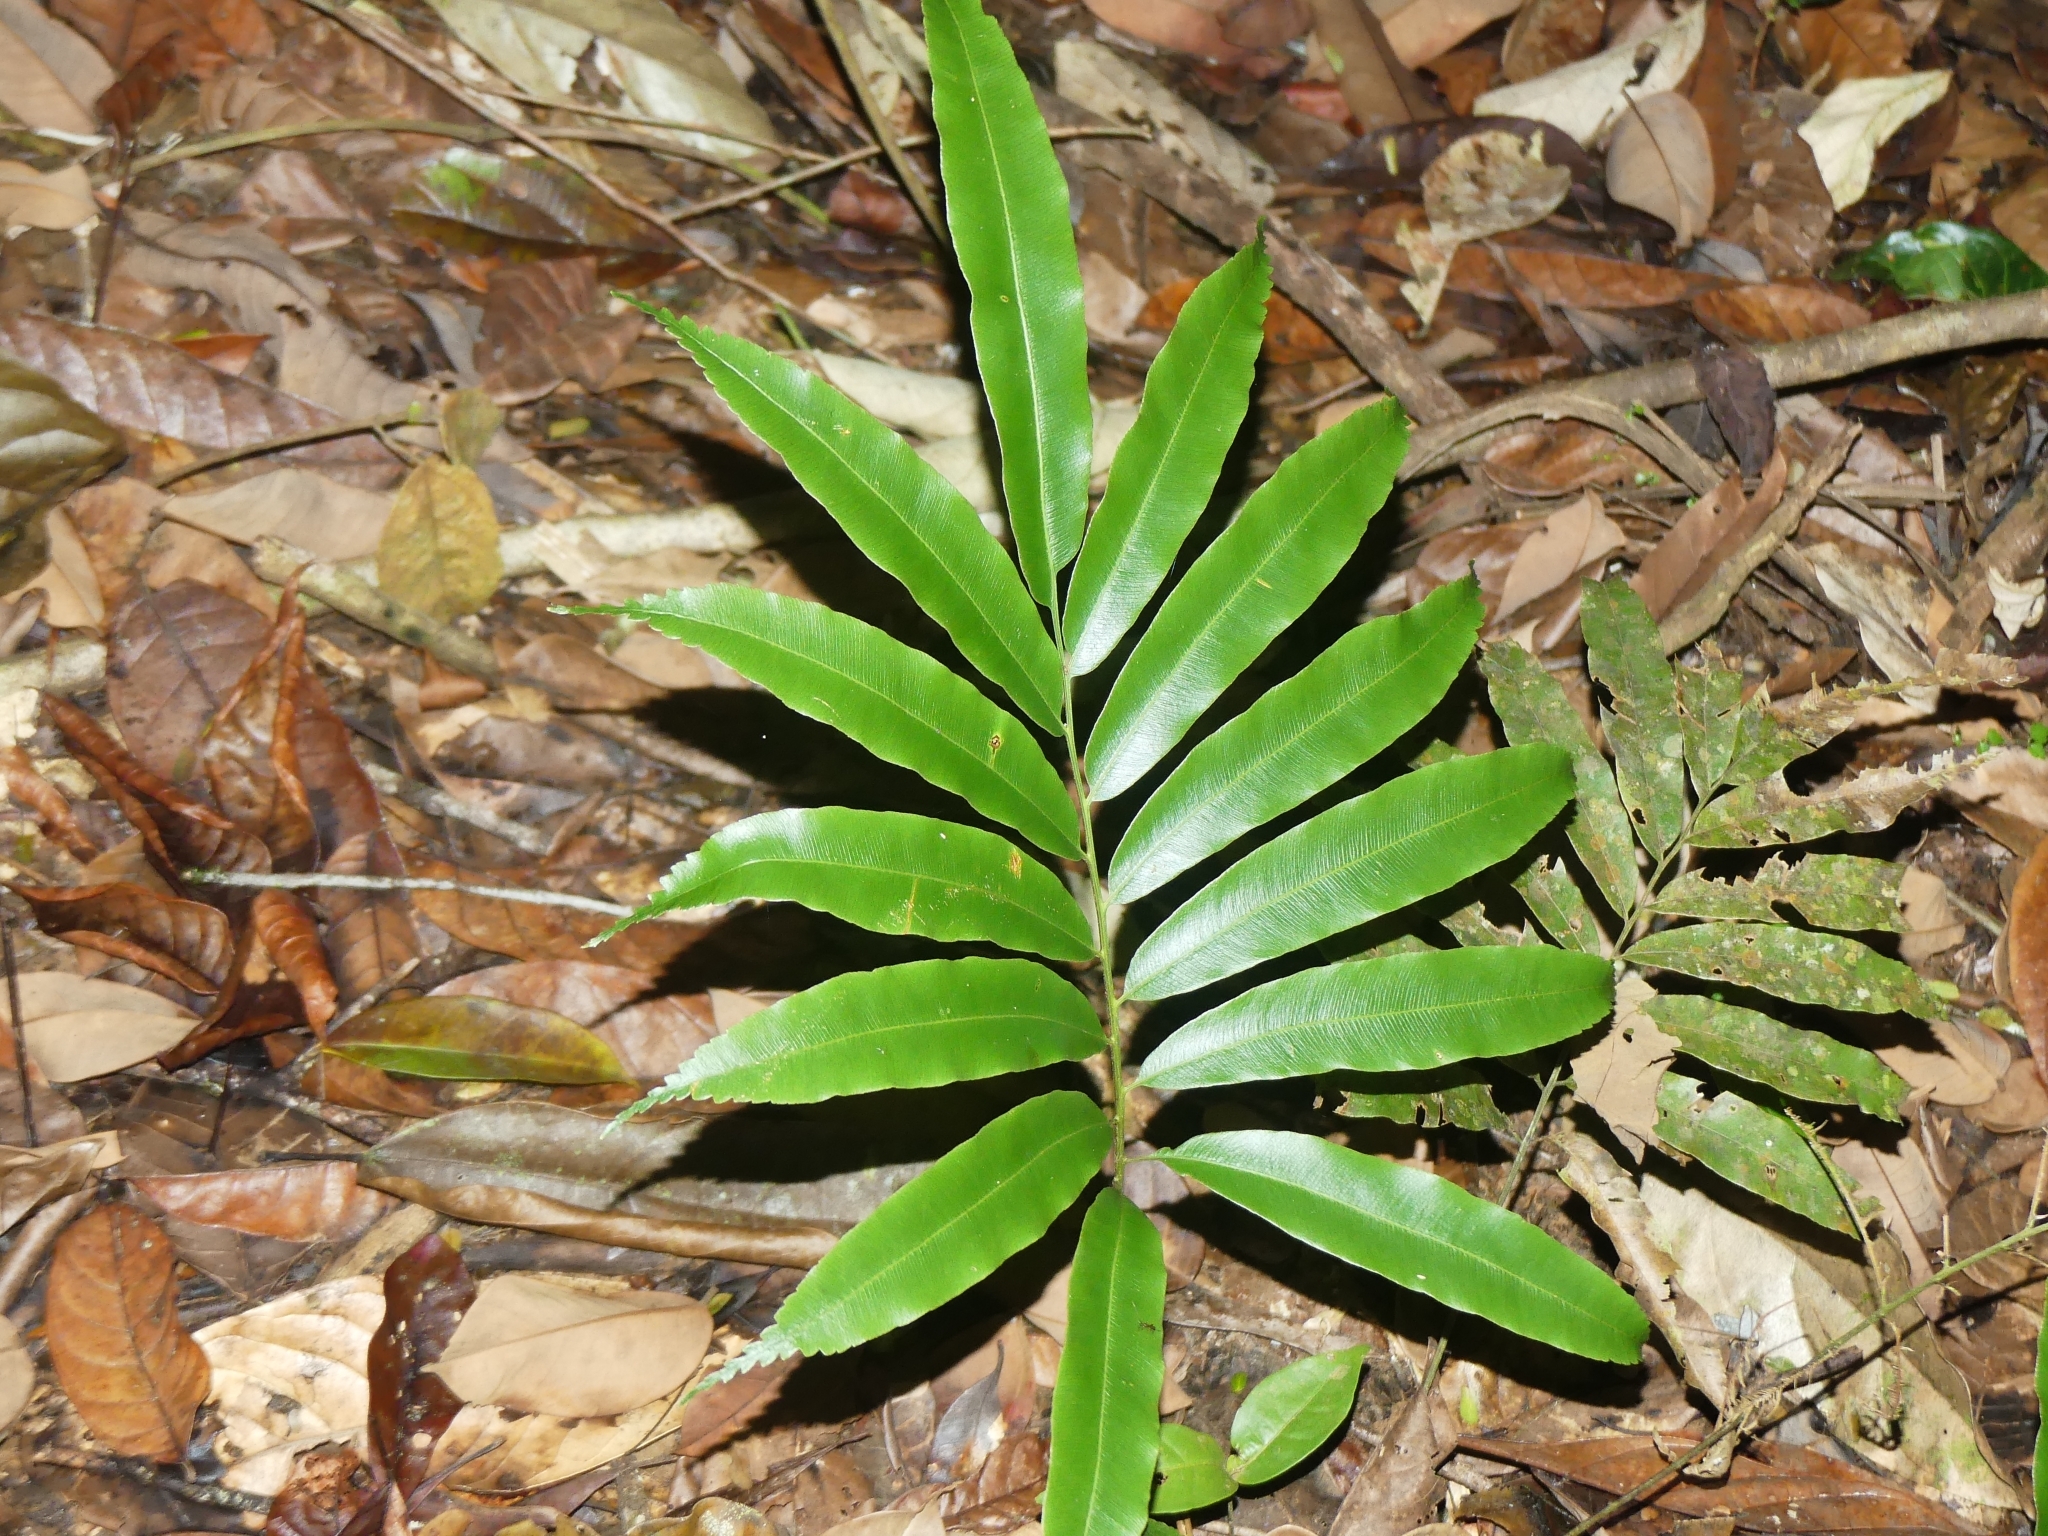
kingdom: Plantae
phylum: Tracheophyta
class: Polypodiopsida
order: Cyatheales
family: Metaxyaceae
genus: Metaxya
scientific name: Metaxya scalaris
